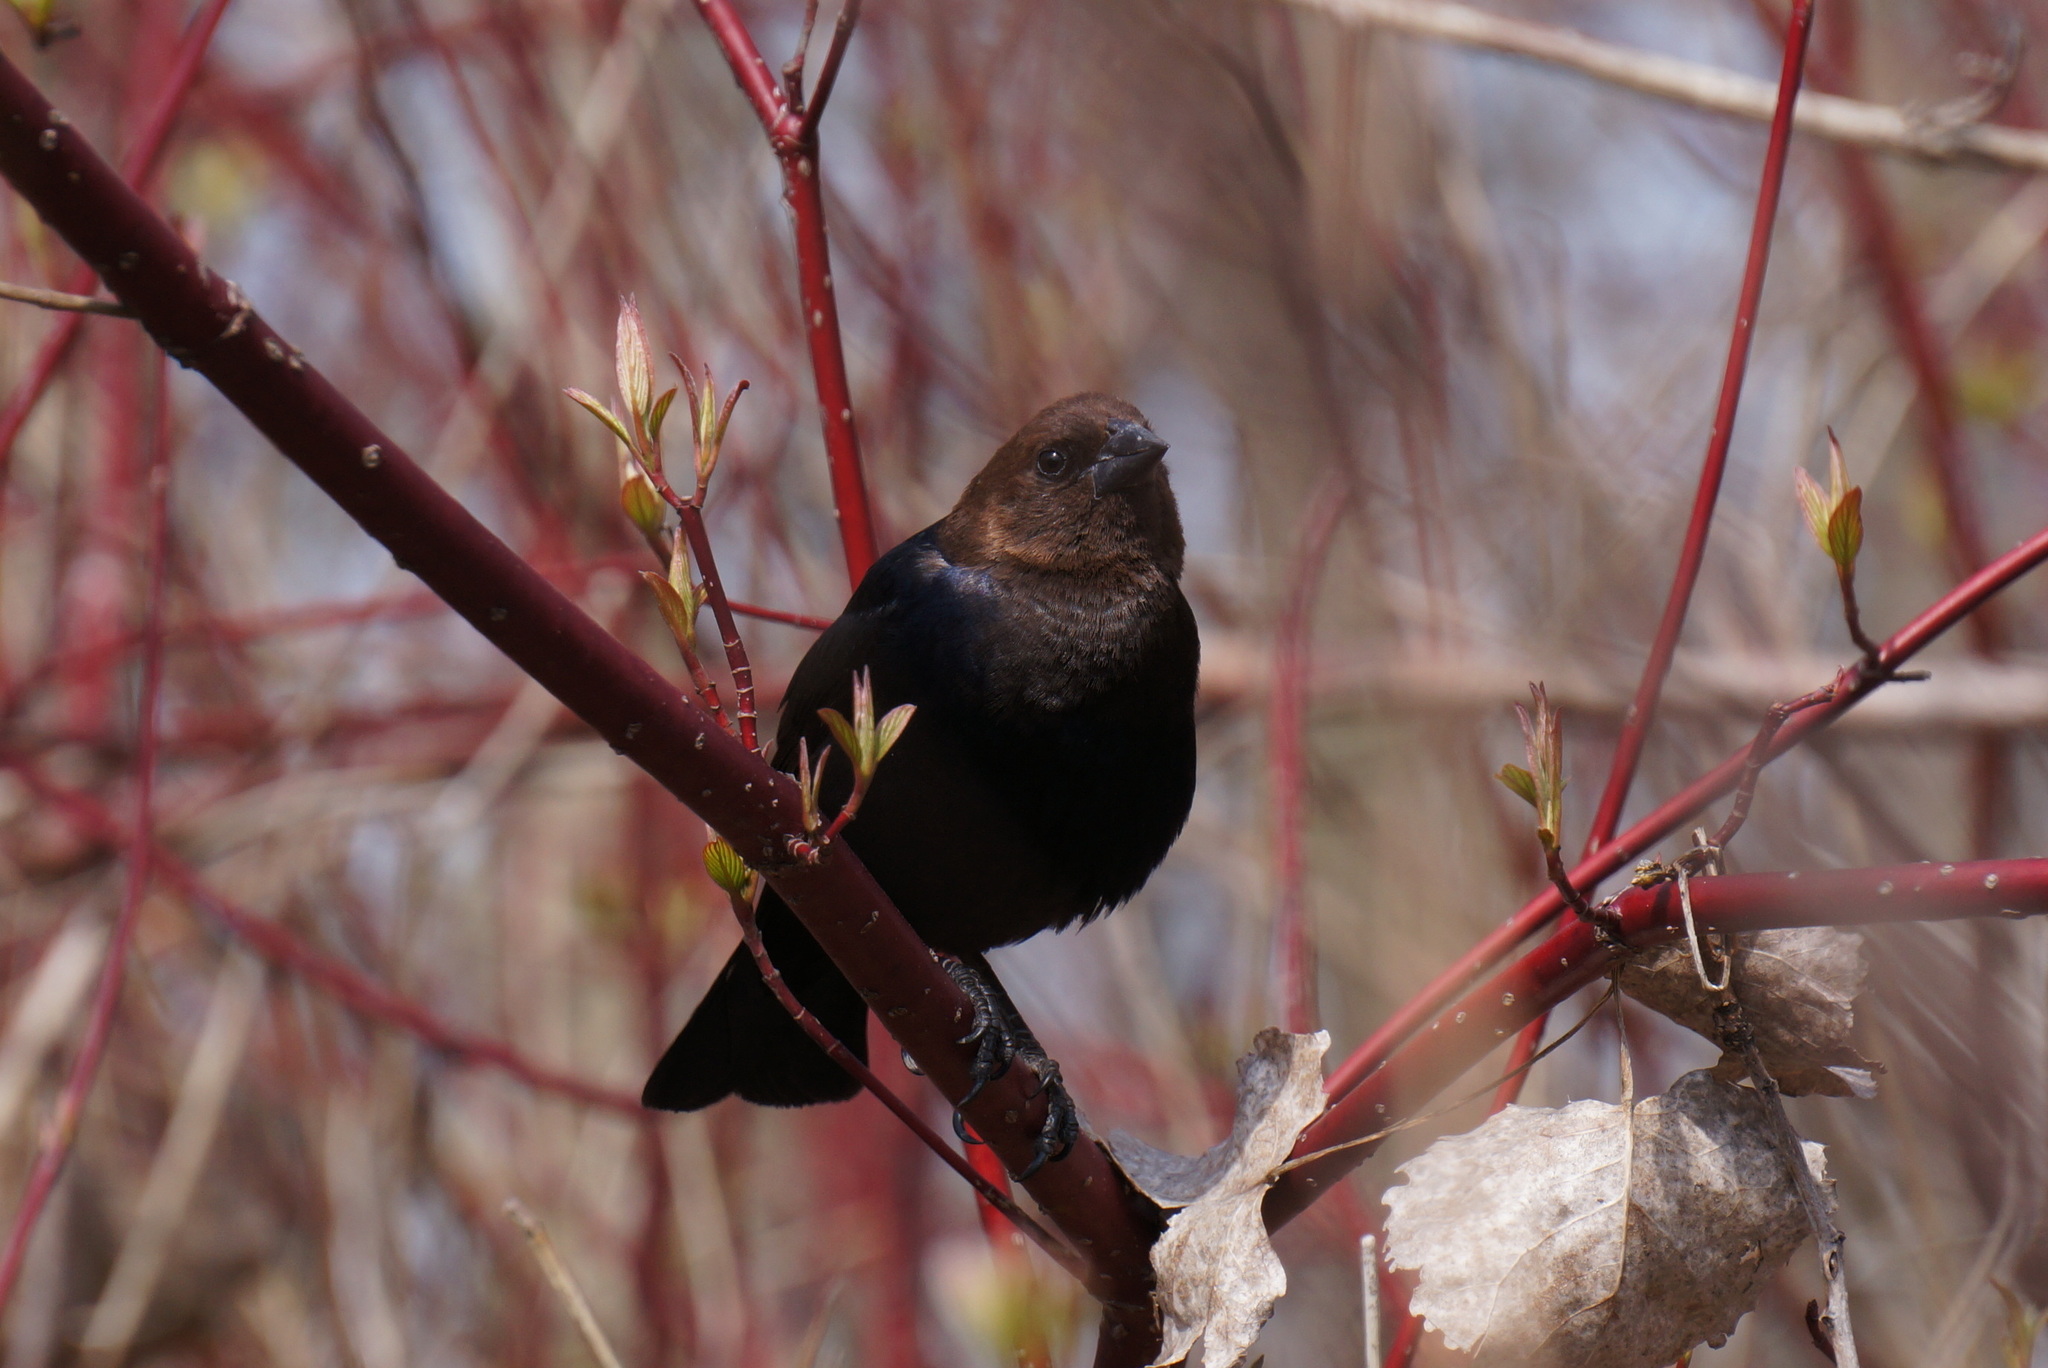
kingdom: Animalia
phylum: Chordata
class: Aves
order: Passeriformes
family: Icteridae
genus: Molothrus
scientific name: Molothrus ater
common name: Brown-headed cowbird
